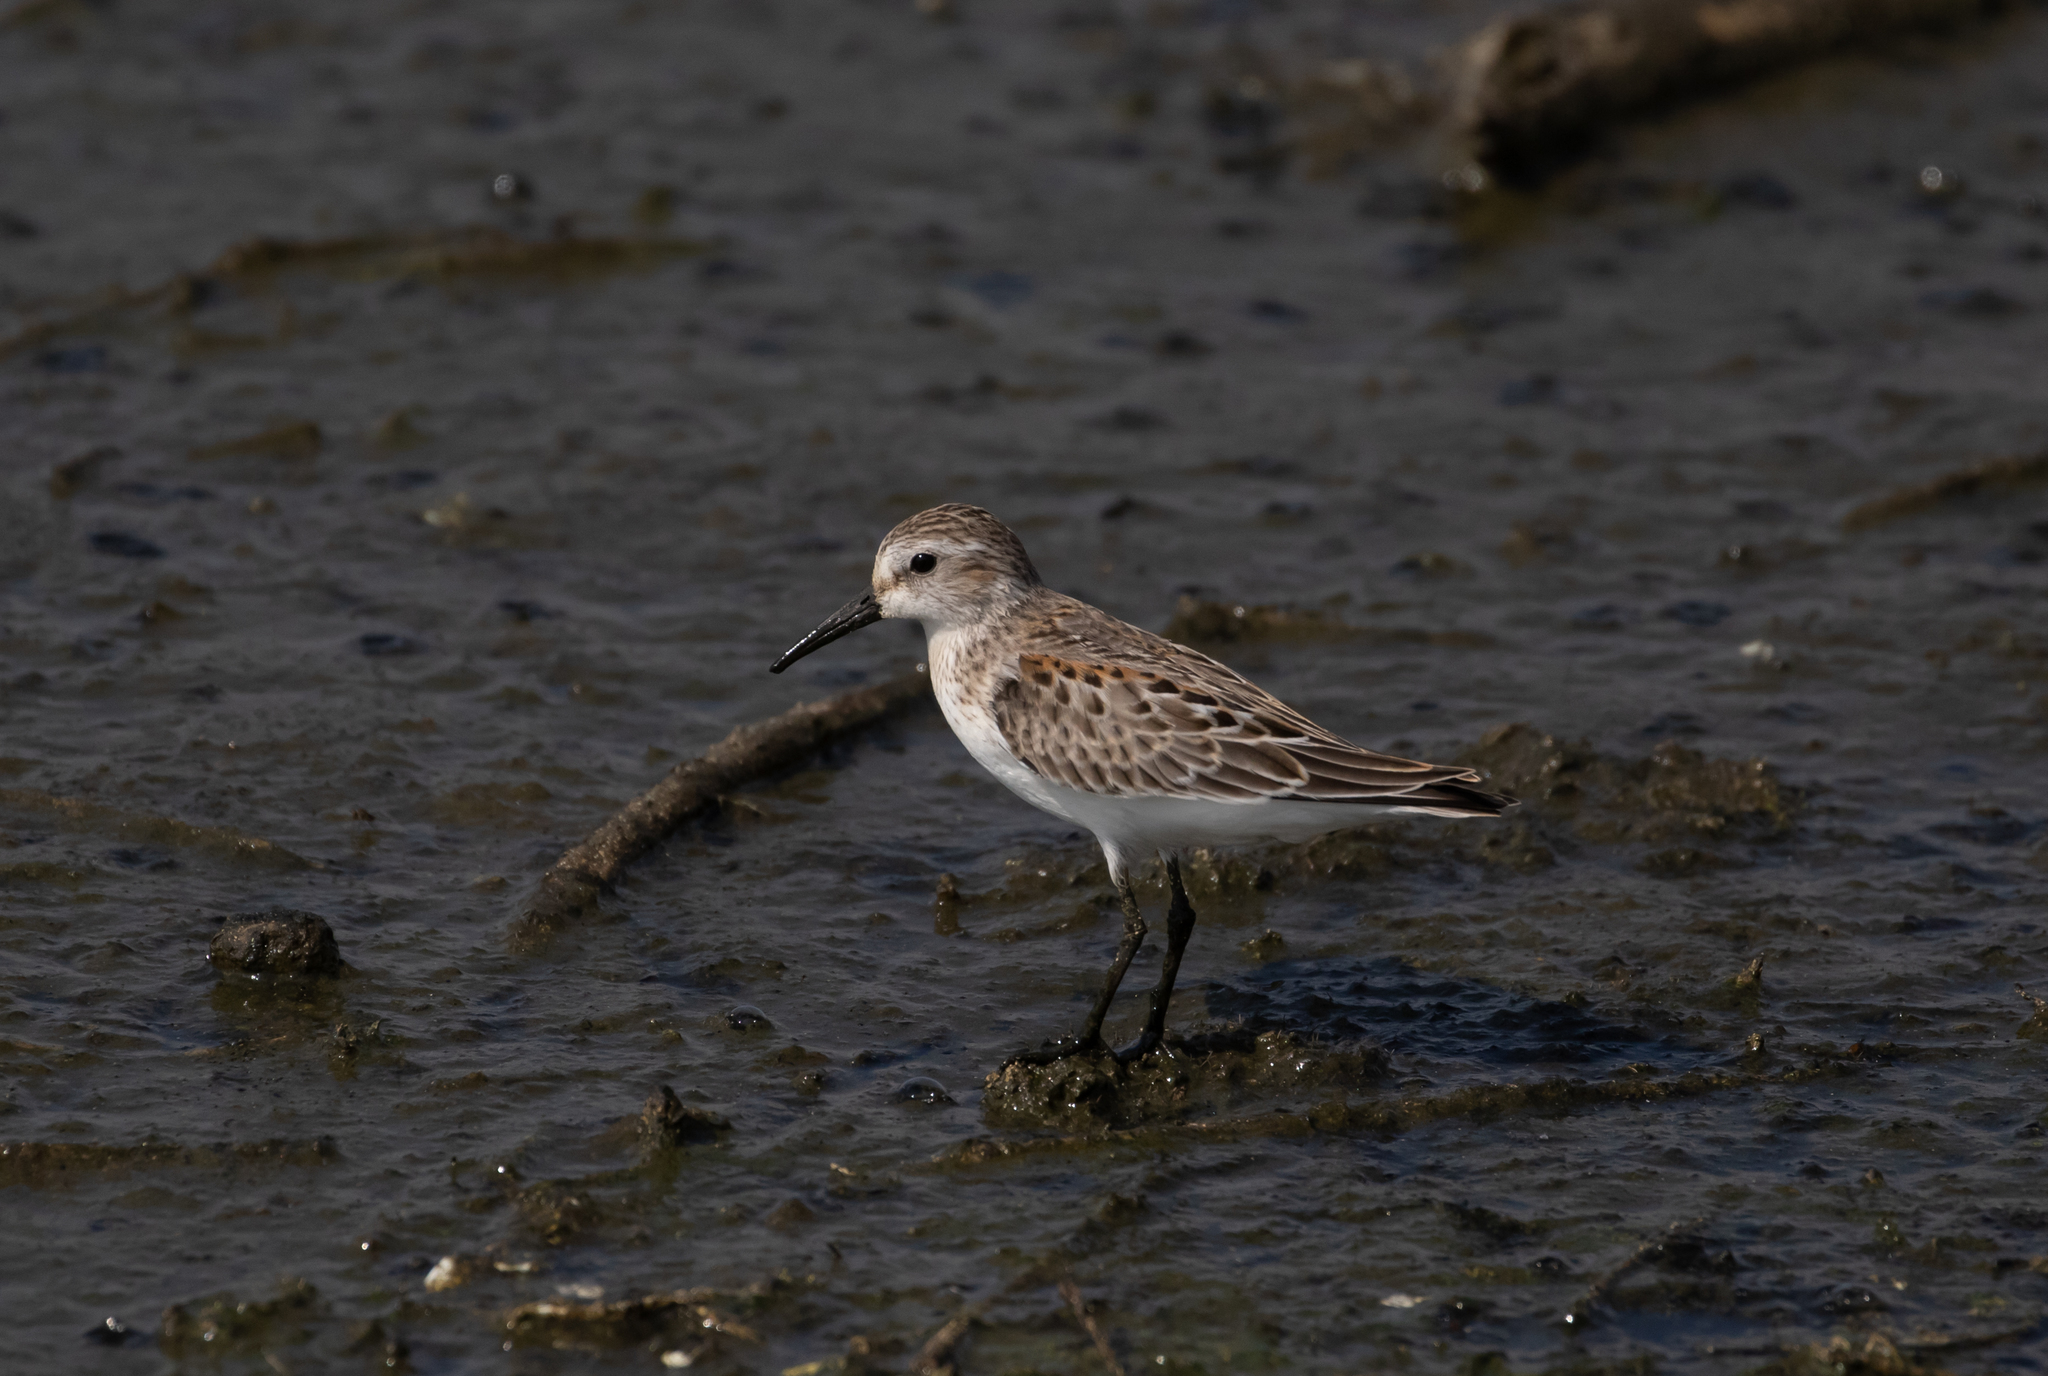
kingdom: Animalia
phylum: Chordata
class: Aves
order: Charadriiformes
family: Scolopacidae
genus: Calidris
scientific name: Calidris mauri
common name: Western sandpiper
